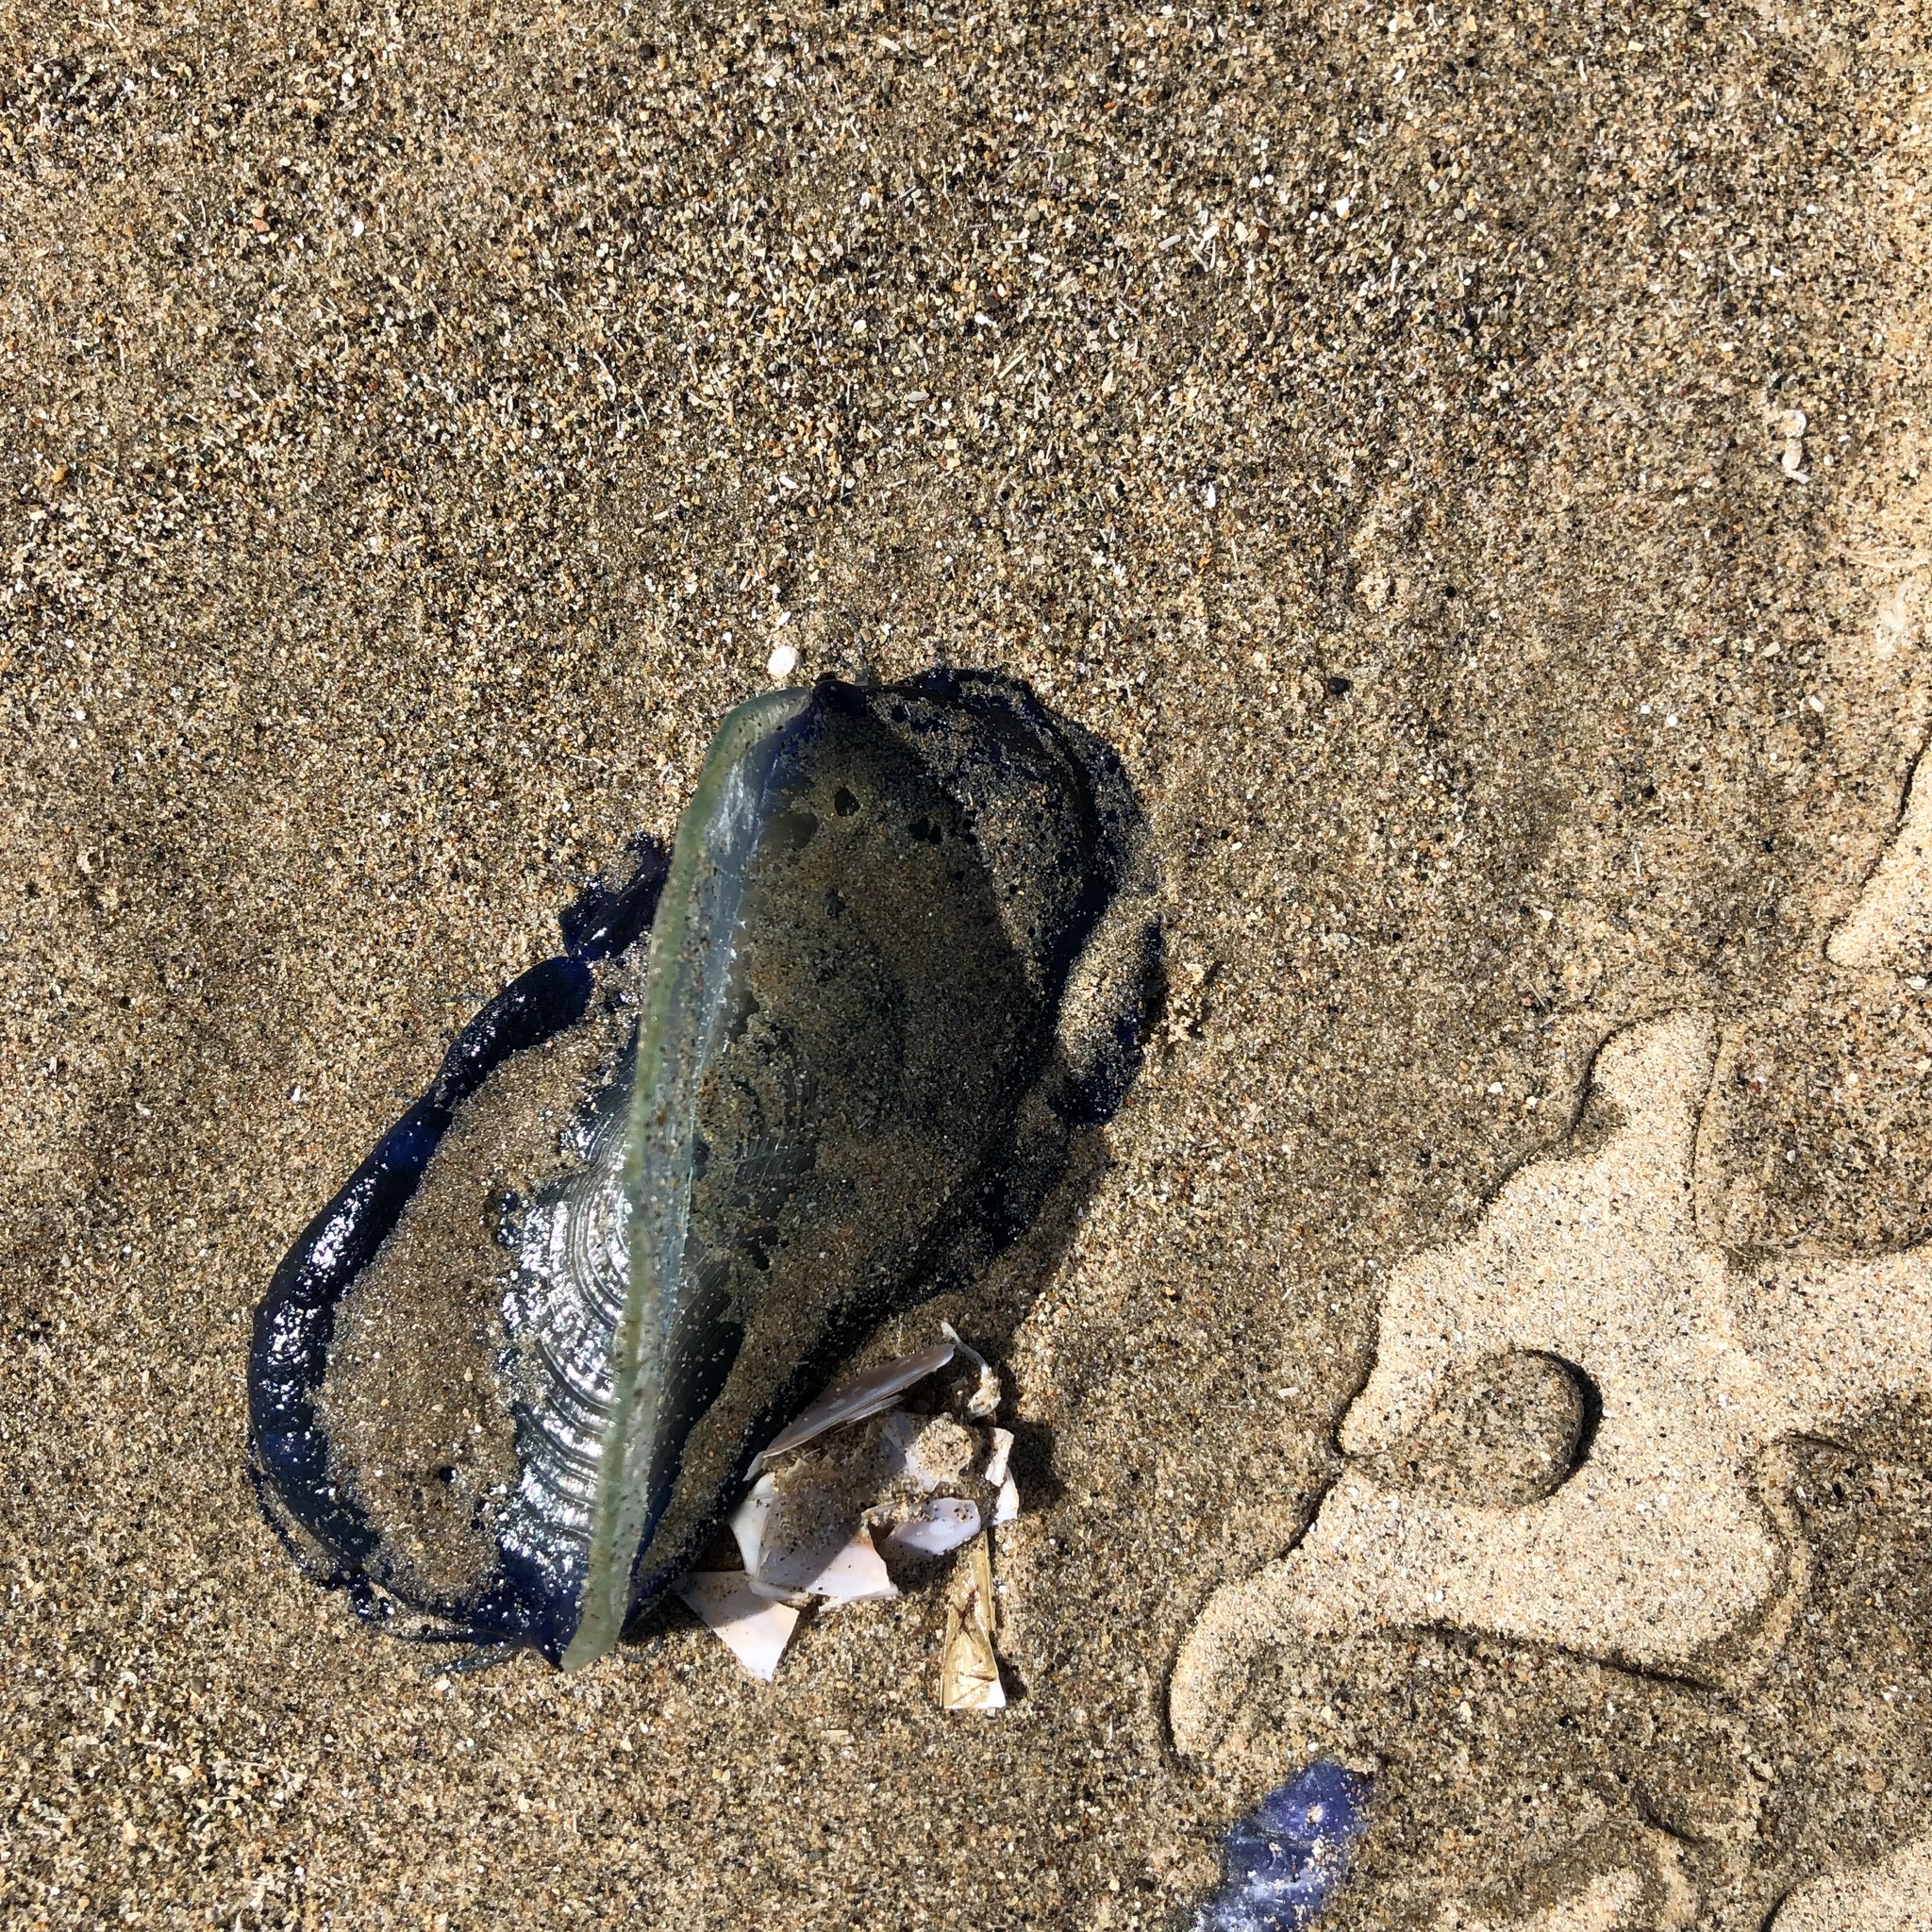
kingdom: Animalia
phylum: Cnidaria
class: Hydrozoa
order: Anthoathecata
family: Porpitidae
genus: Velella
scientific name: Velella velella
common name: By-the-wind-sailor
